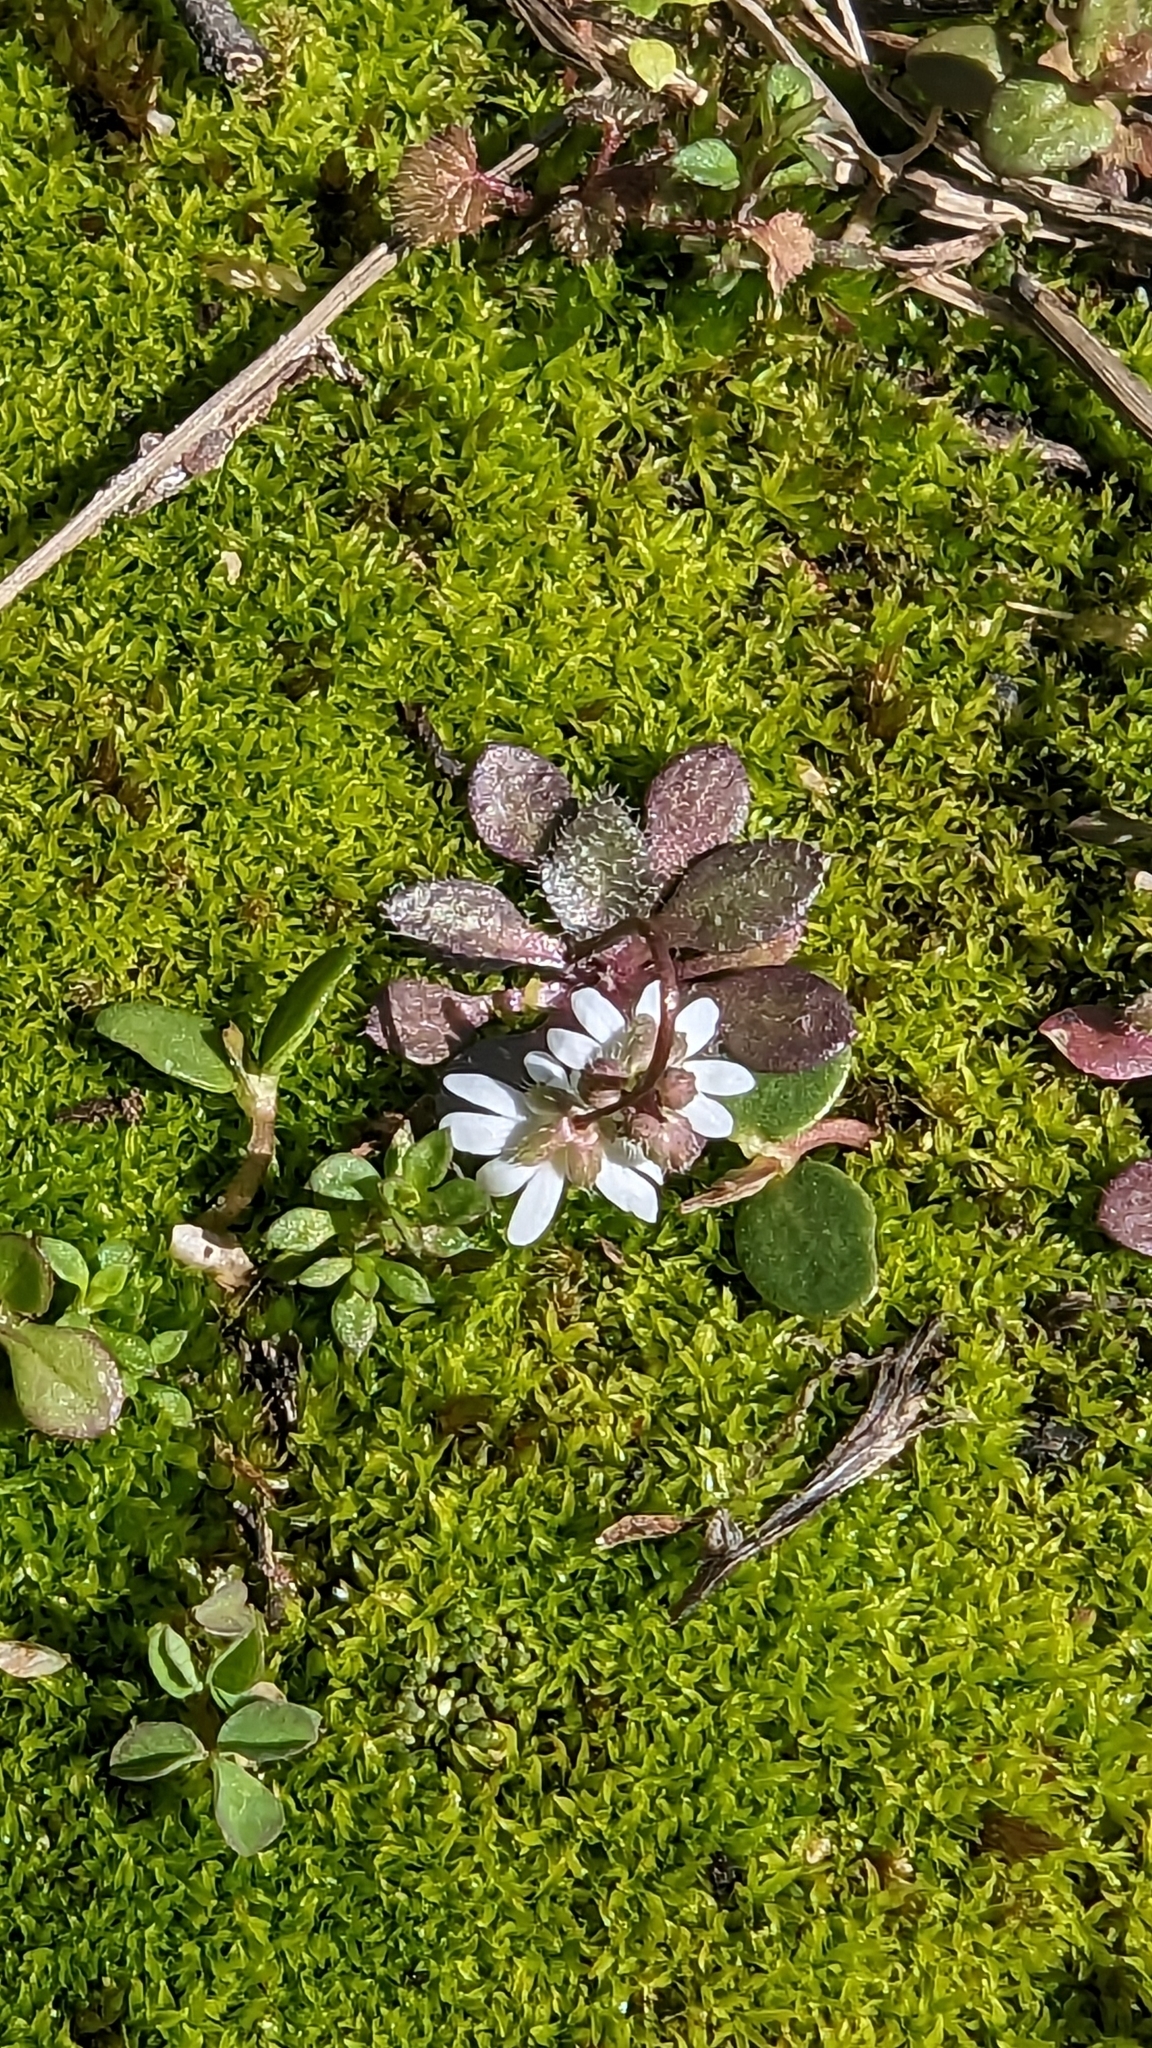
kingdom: Plantae
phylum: Tracheophyta
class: Magnoliopsida
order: Brassicales
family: Brassicaceae
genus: Draba
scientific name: Draba verna
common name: Spring draba
